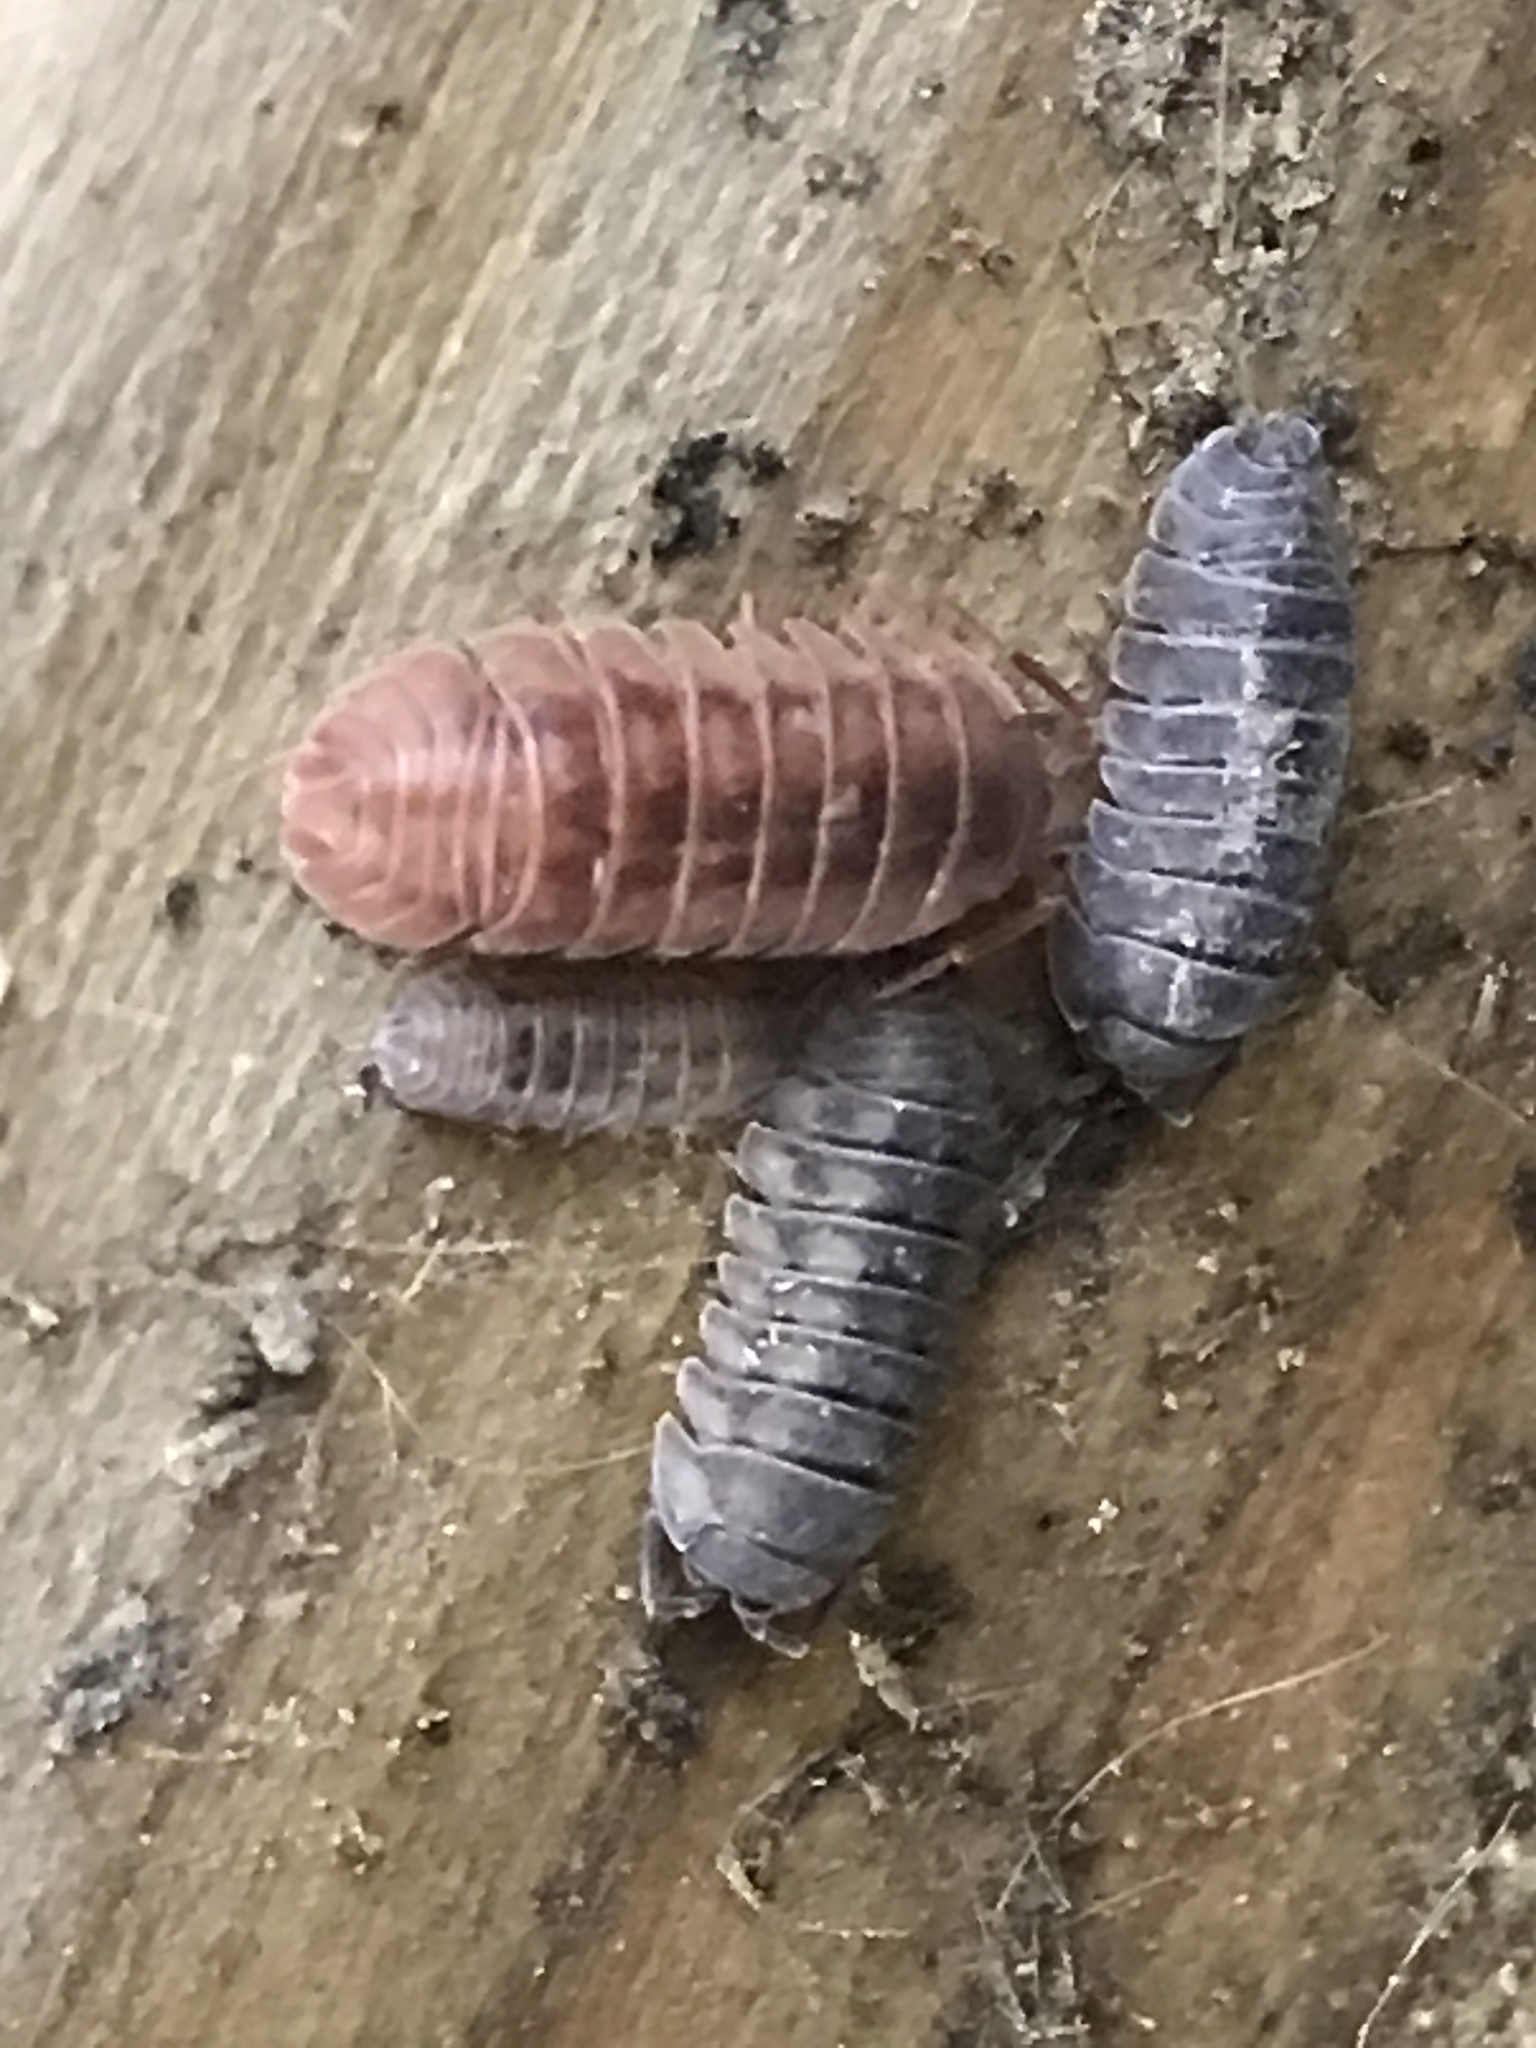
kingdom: Animalia
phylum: Arthropoda
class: Malacostraca
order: Isopoda
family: Armadillidiidae
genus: Armadillidium
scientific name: Armadillidium nasatum
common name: Isopod
